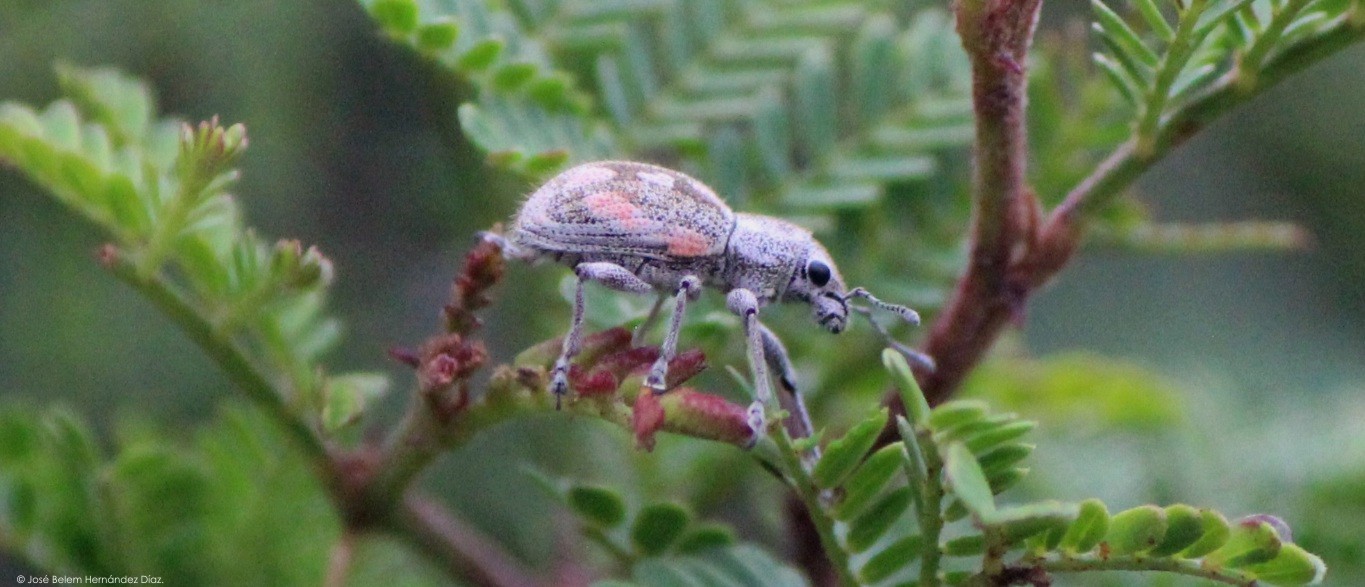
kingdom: Animalia
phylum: Arthropoda
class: Insecta
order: Coleoptera
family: Curculionidae
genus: Pantomorus
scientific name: Pantomorus albosignatus
